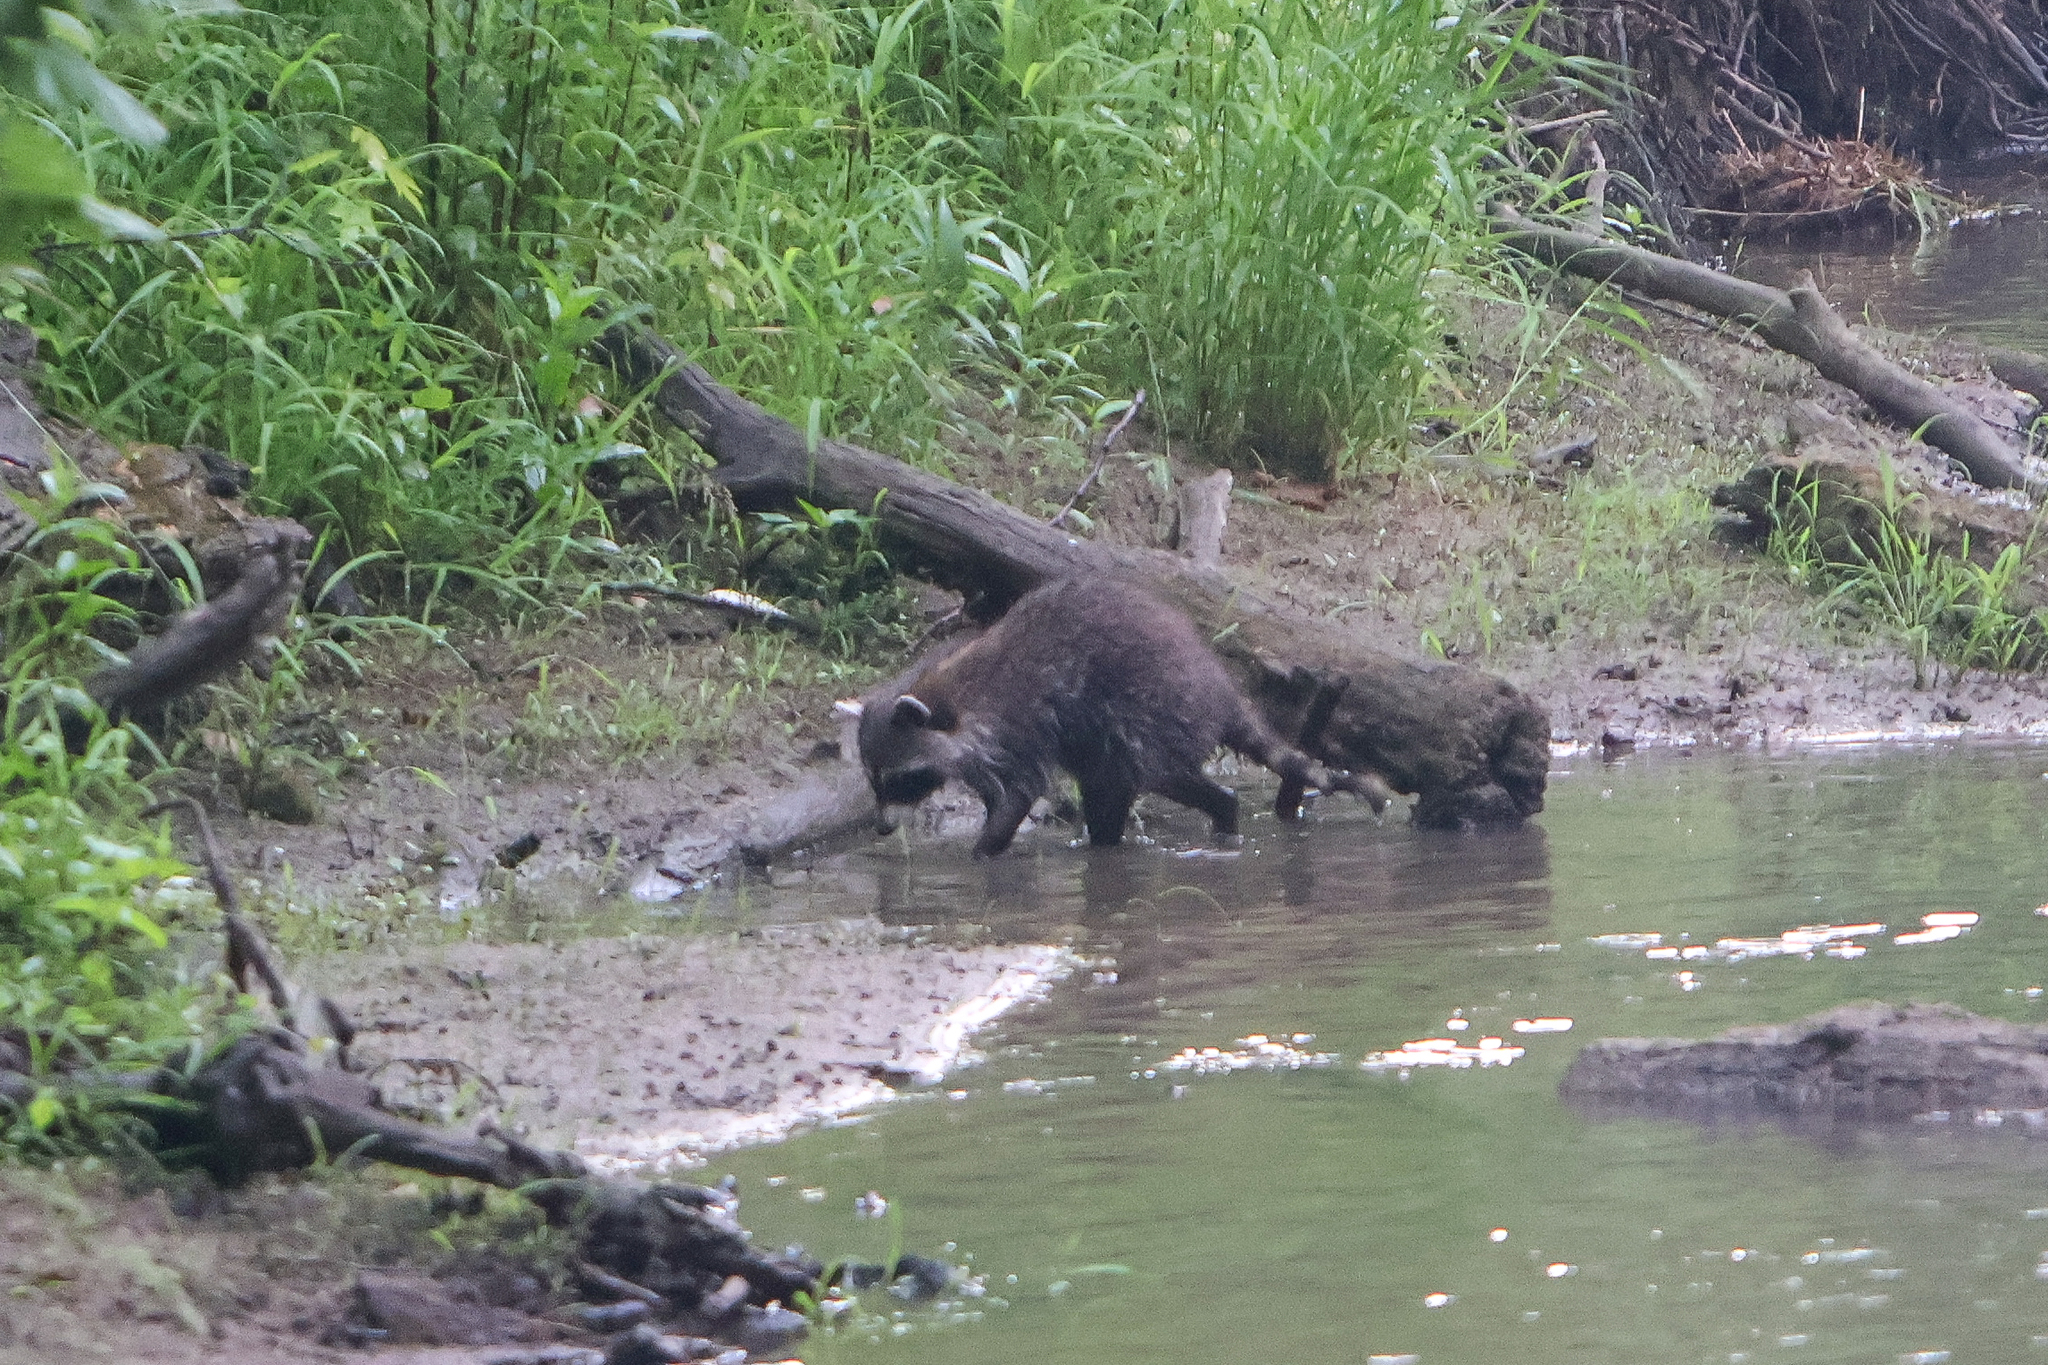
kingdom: Animalia
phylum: Chordata
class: Mammalia
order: Carnivora
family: Procyonidae
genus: Procyon
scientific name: Procyon lotor
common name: Raccoon
